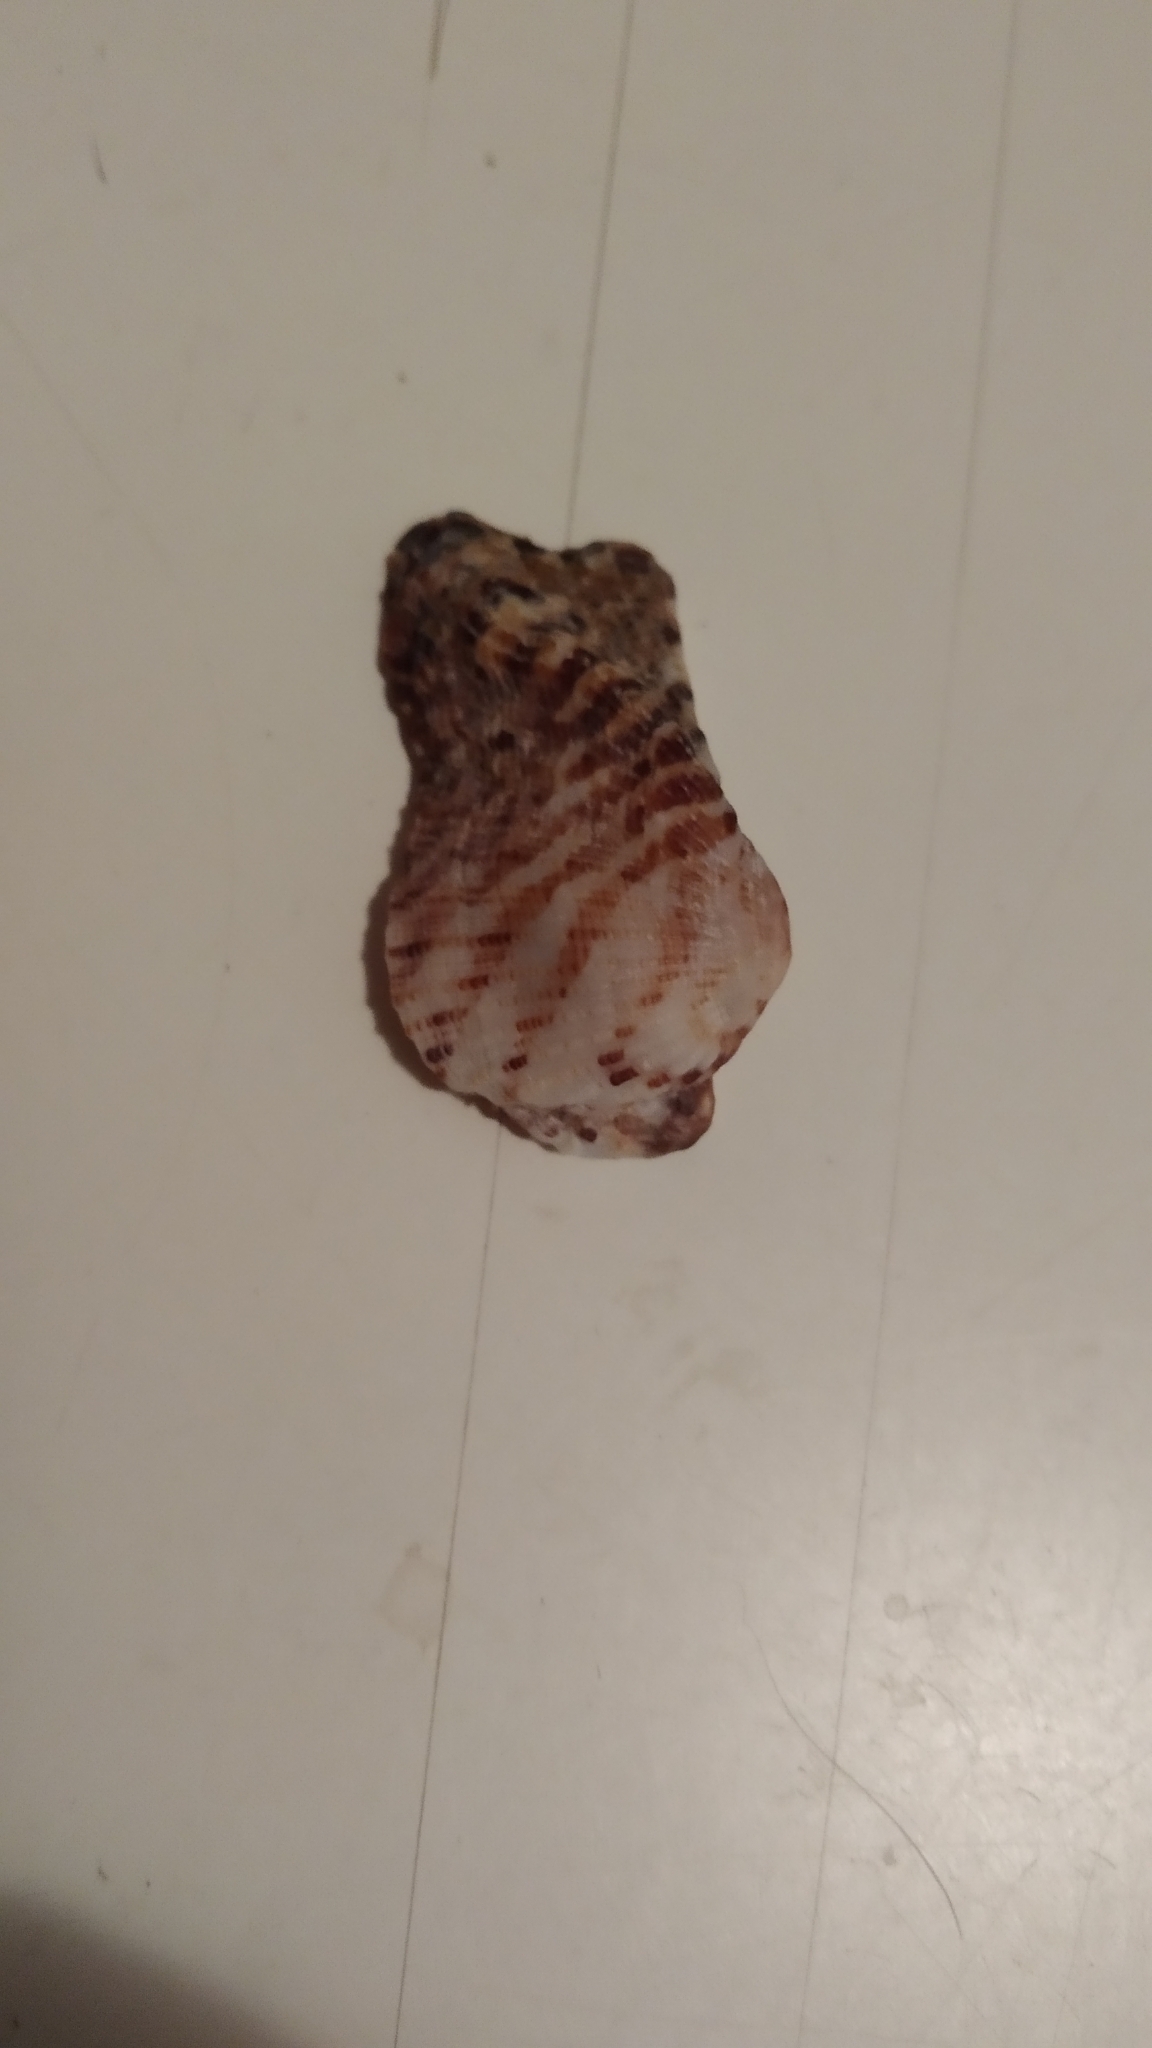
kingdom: Animalia
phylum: Mollusca
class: Bivalvia
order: Arcida
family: Arcidae
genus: Arca
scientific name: Arca noae
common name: Noah's arch
